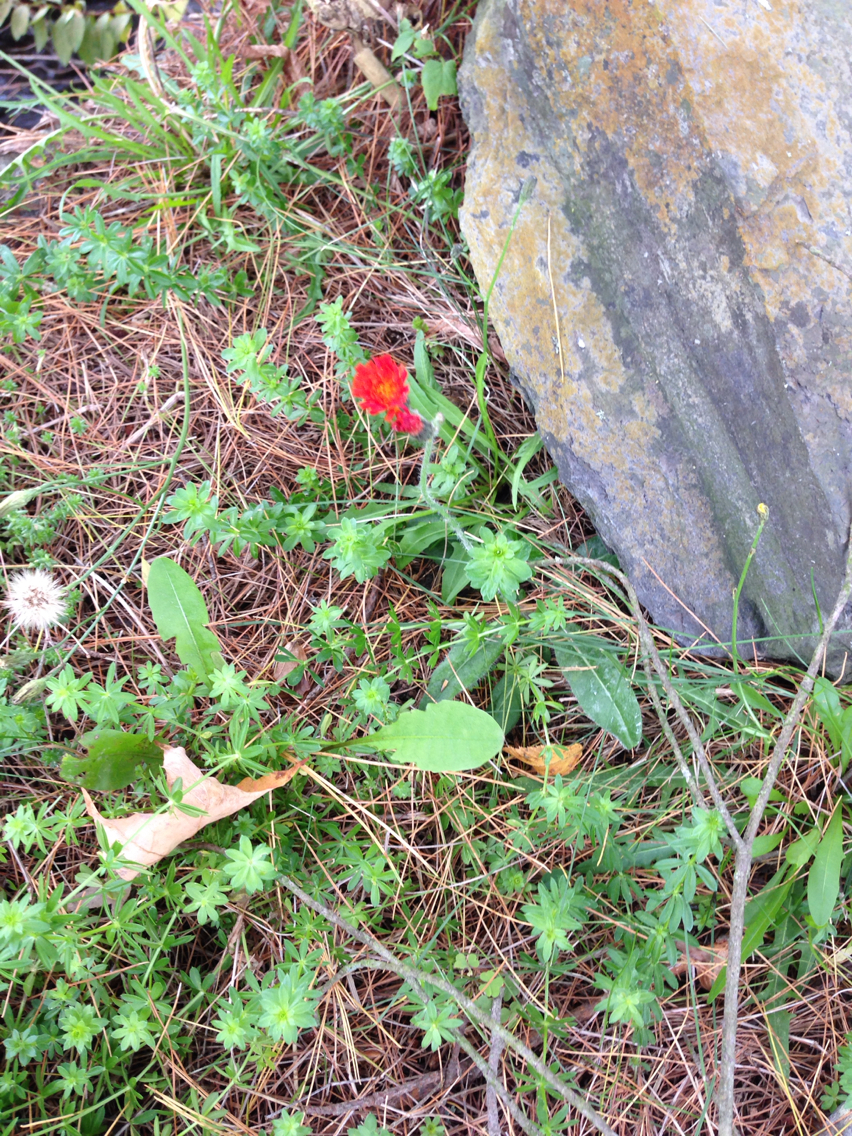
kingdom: Plantae
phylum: Tracheophyta
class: Magnoliopsida
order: Asterales
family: Asteraceae
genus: Pilosella
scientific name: Pilosella aurantiaca
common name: Fox-and-cubs
